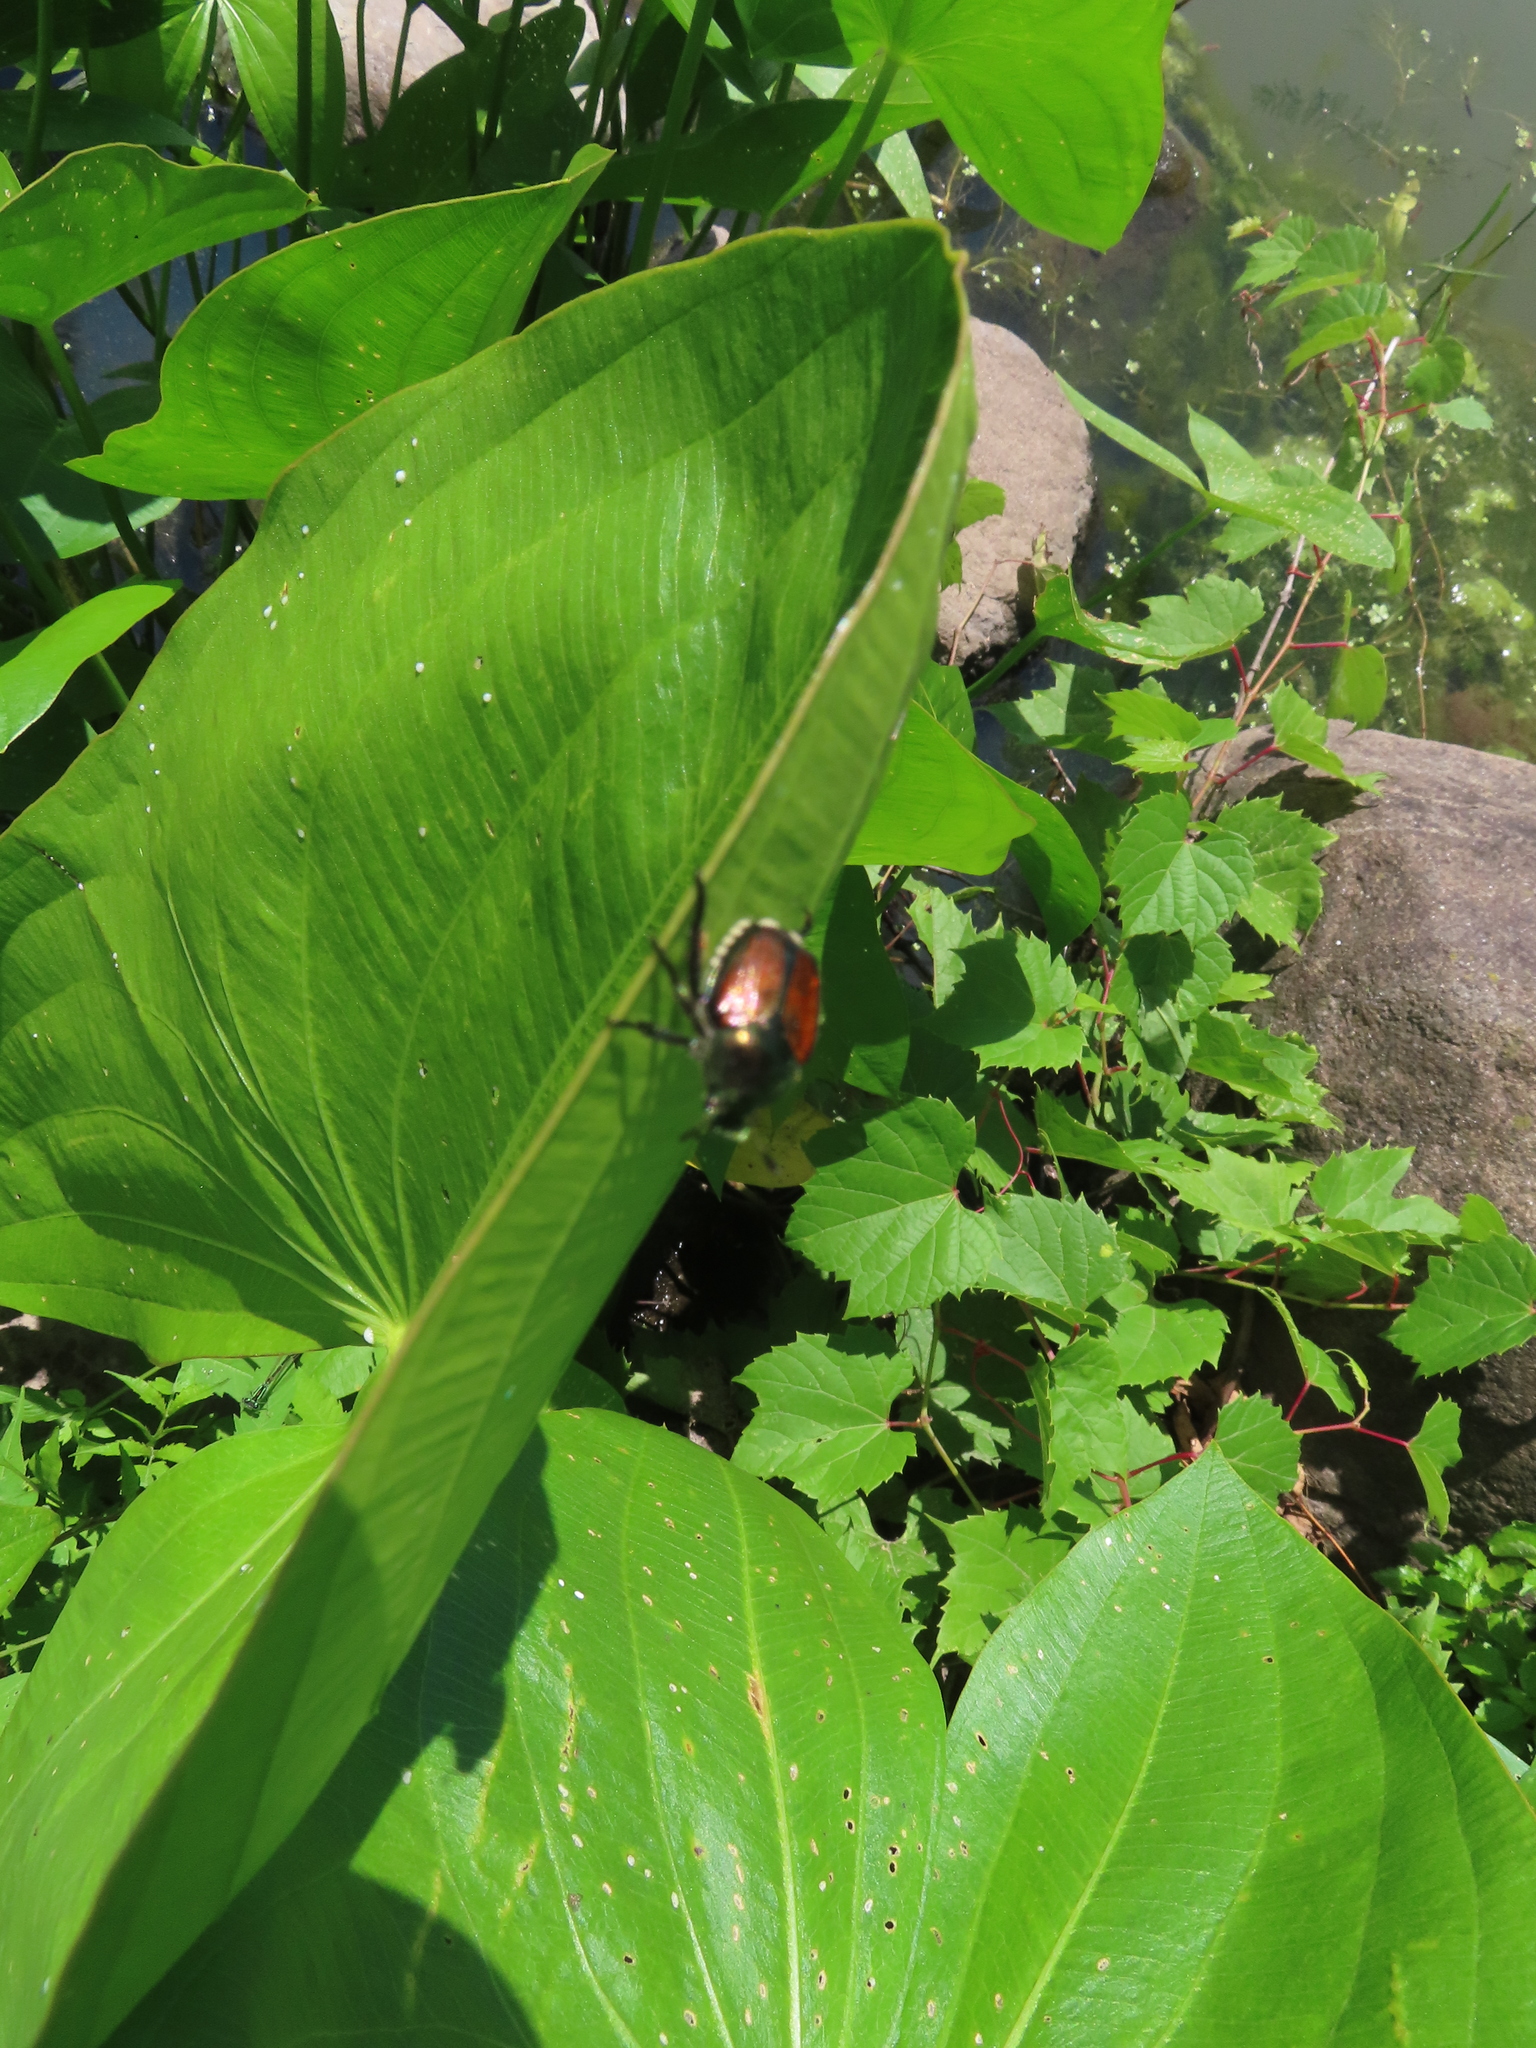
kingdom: Animalia
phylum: Arthropoda
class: Insecta
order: Coleoptera
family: Scarabaeidae
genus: Popillia
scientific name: Popillia japonica
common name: Japanese beetle
